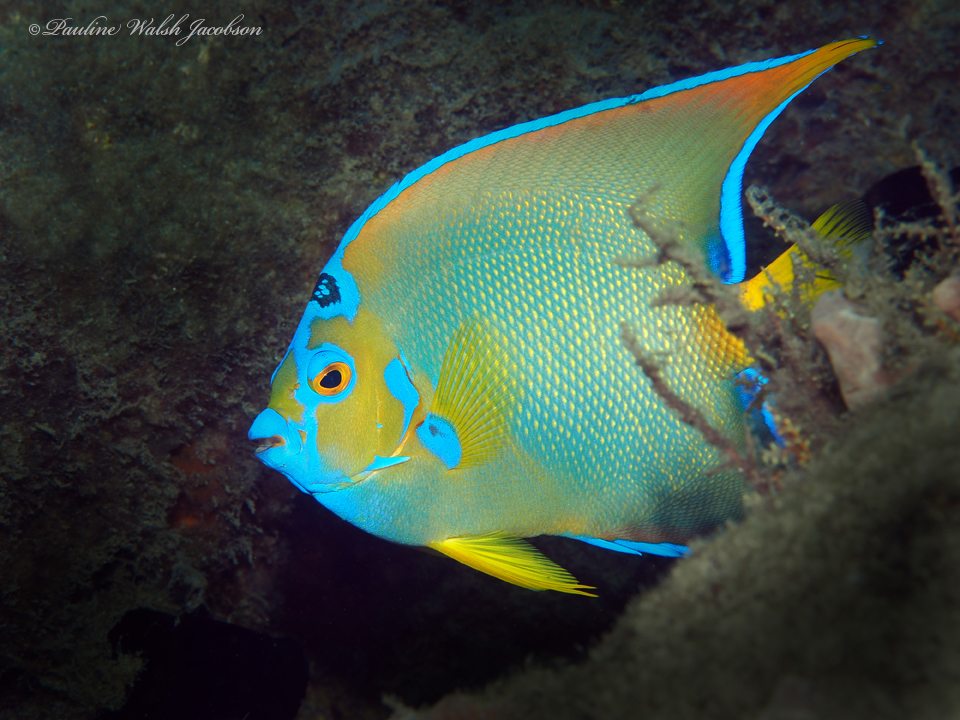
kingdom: Animalia
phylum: Chordata
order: Perciformes
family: Pomacanthidae
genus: Holacanthus
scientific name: Holacanthus ciliaris
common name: Queen angelfish
